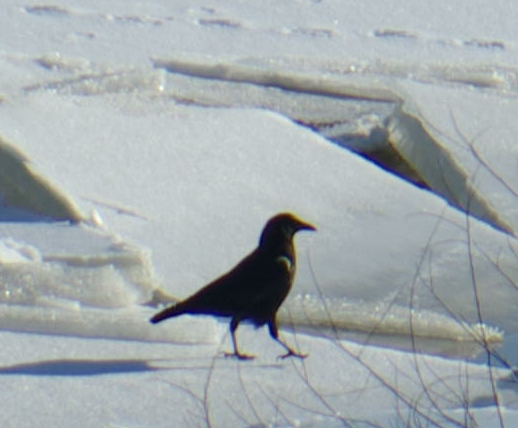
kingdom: Animalia
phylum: Chordata
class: Aves
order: Passeriformes
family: Corvidae
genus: Corvus
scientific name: Corvus brachyrhynchos
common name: American crow
